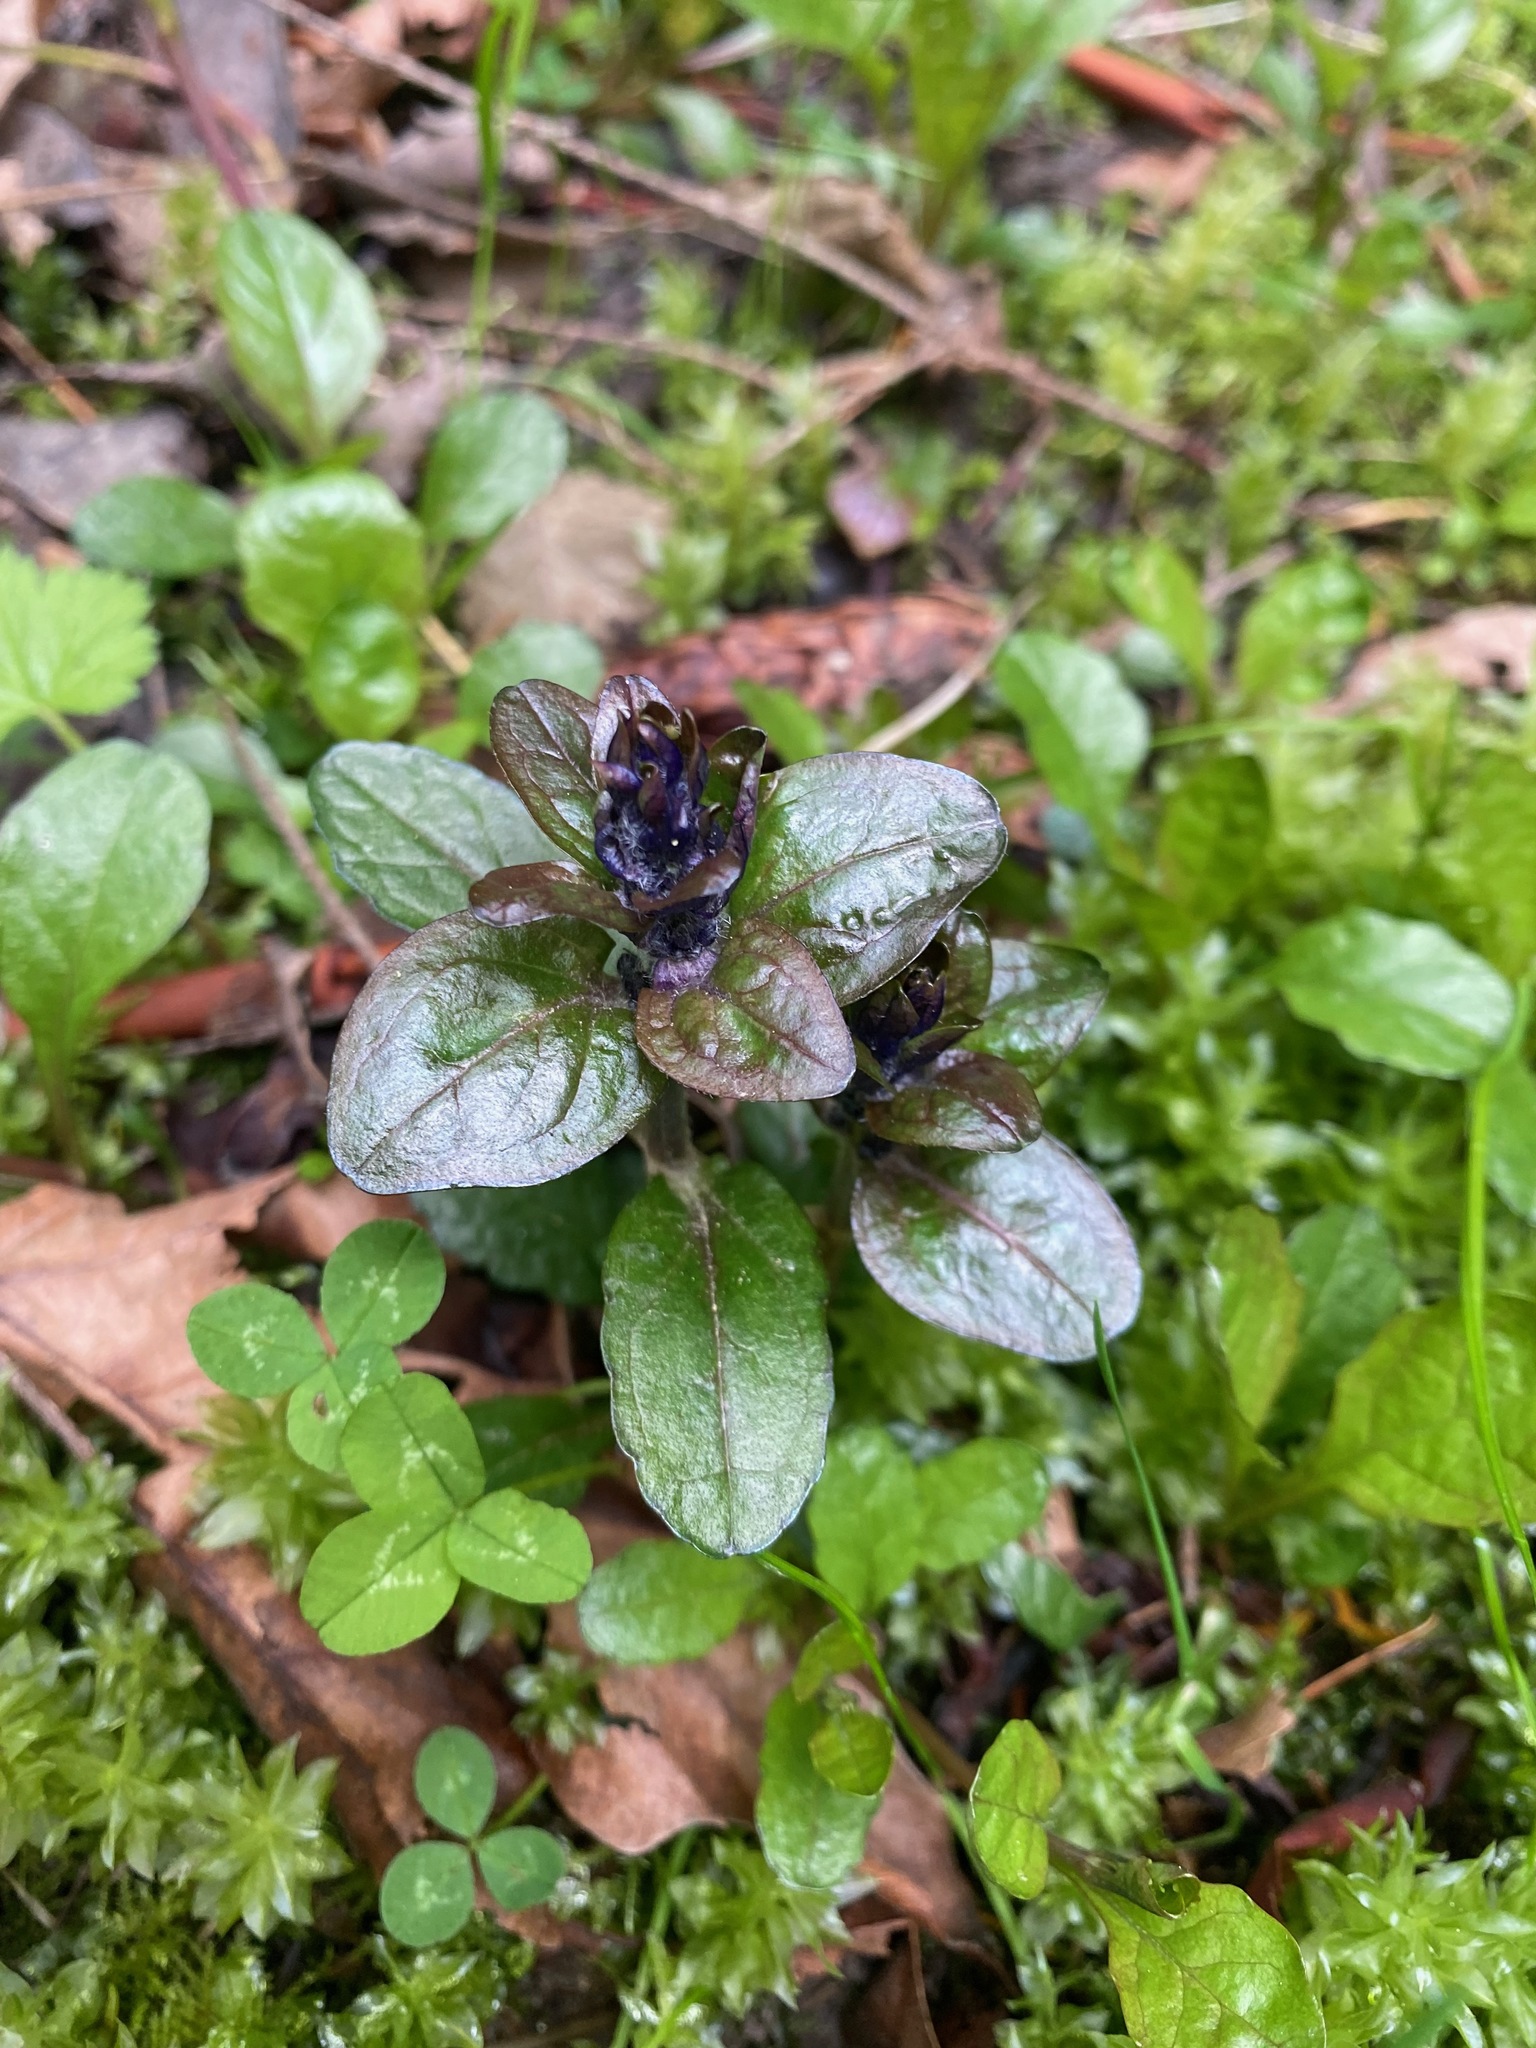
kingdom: Plantae
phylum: Tracheophyta
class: Magnoliopsida
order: Lamiales
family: Lamiaceae
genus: Ajuga
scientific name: Ajuga reptans
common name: Bugle
